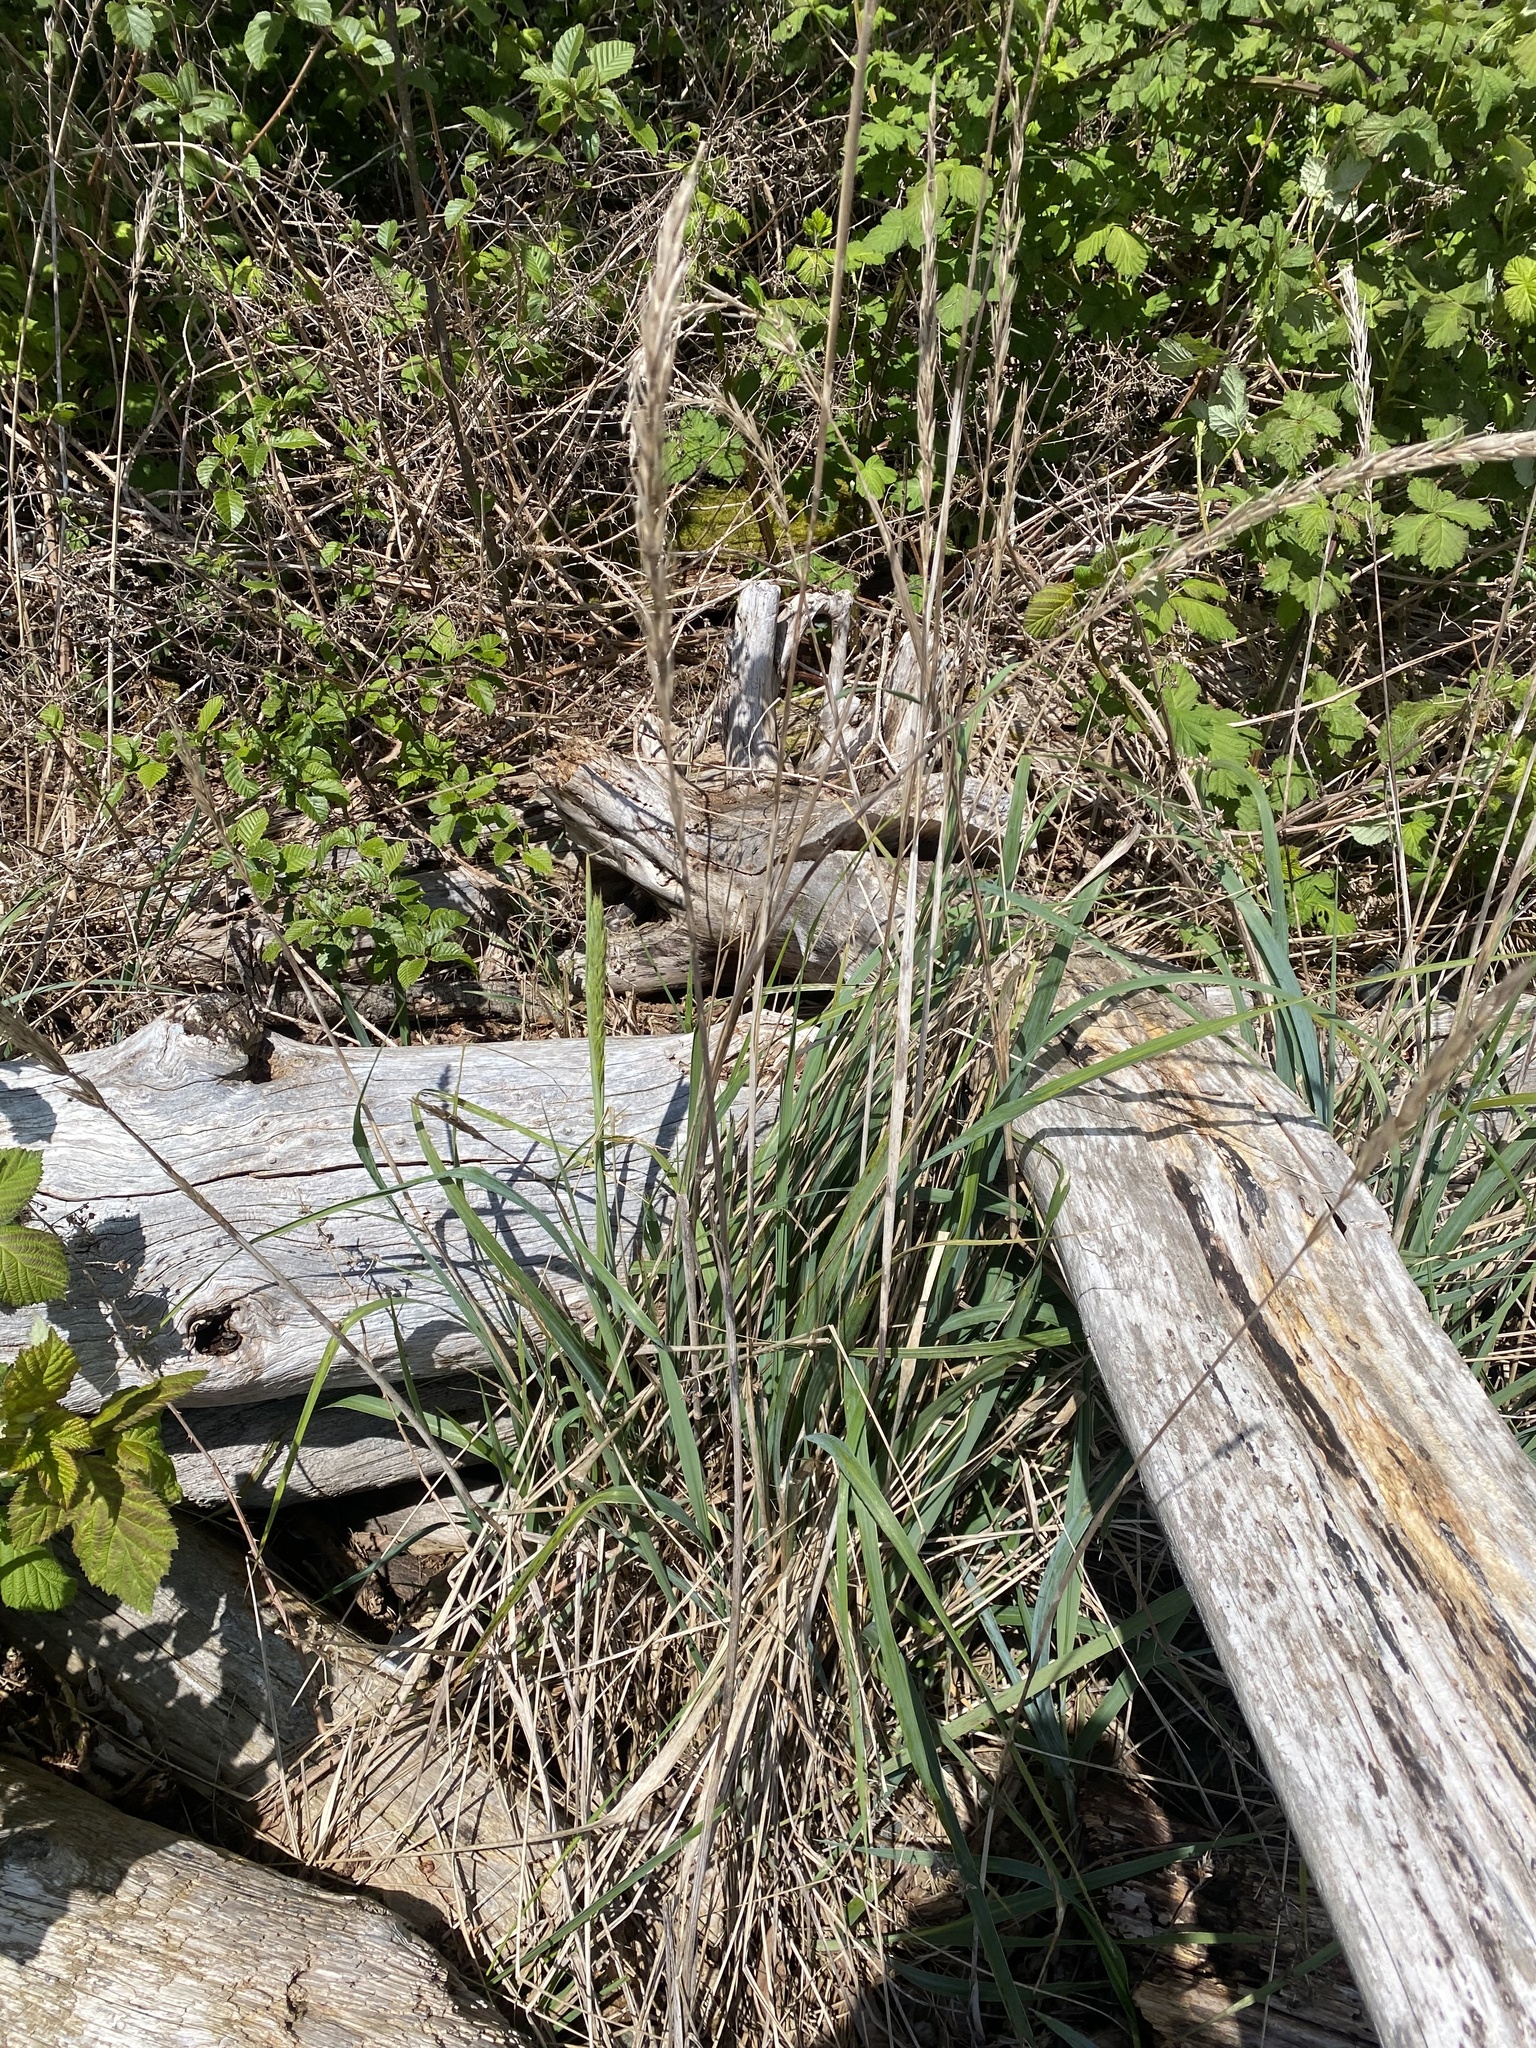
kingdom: Plantae
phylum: Tracheophyta
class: Liliopsida
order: Poales
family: Poaceae
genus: Leymus
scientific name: Leymus mollis
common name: American dune grass
